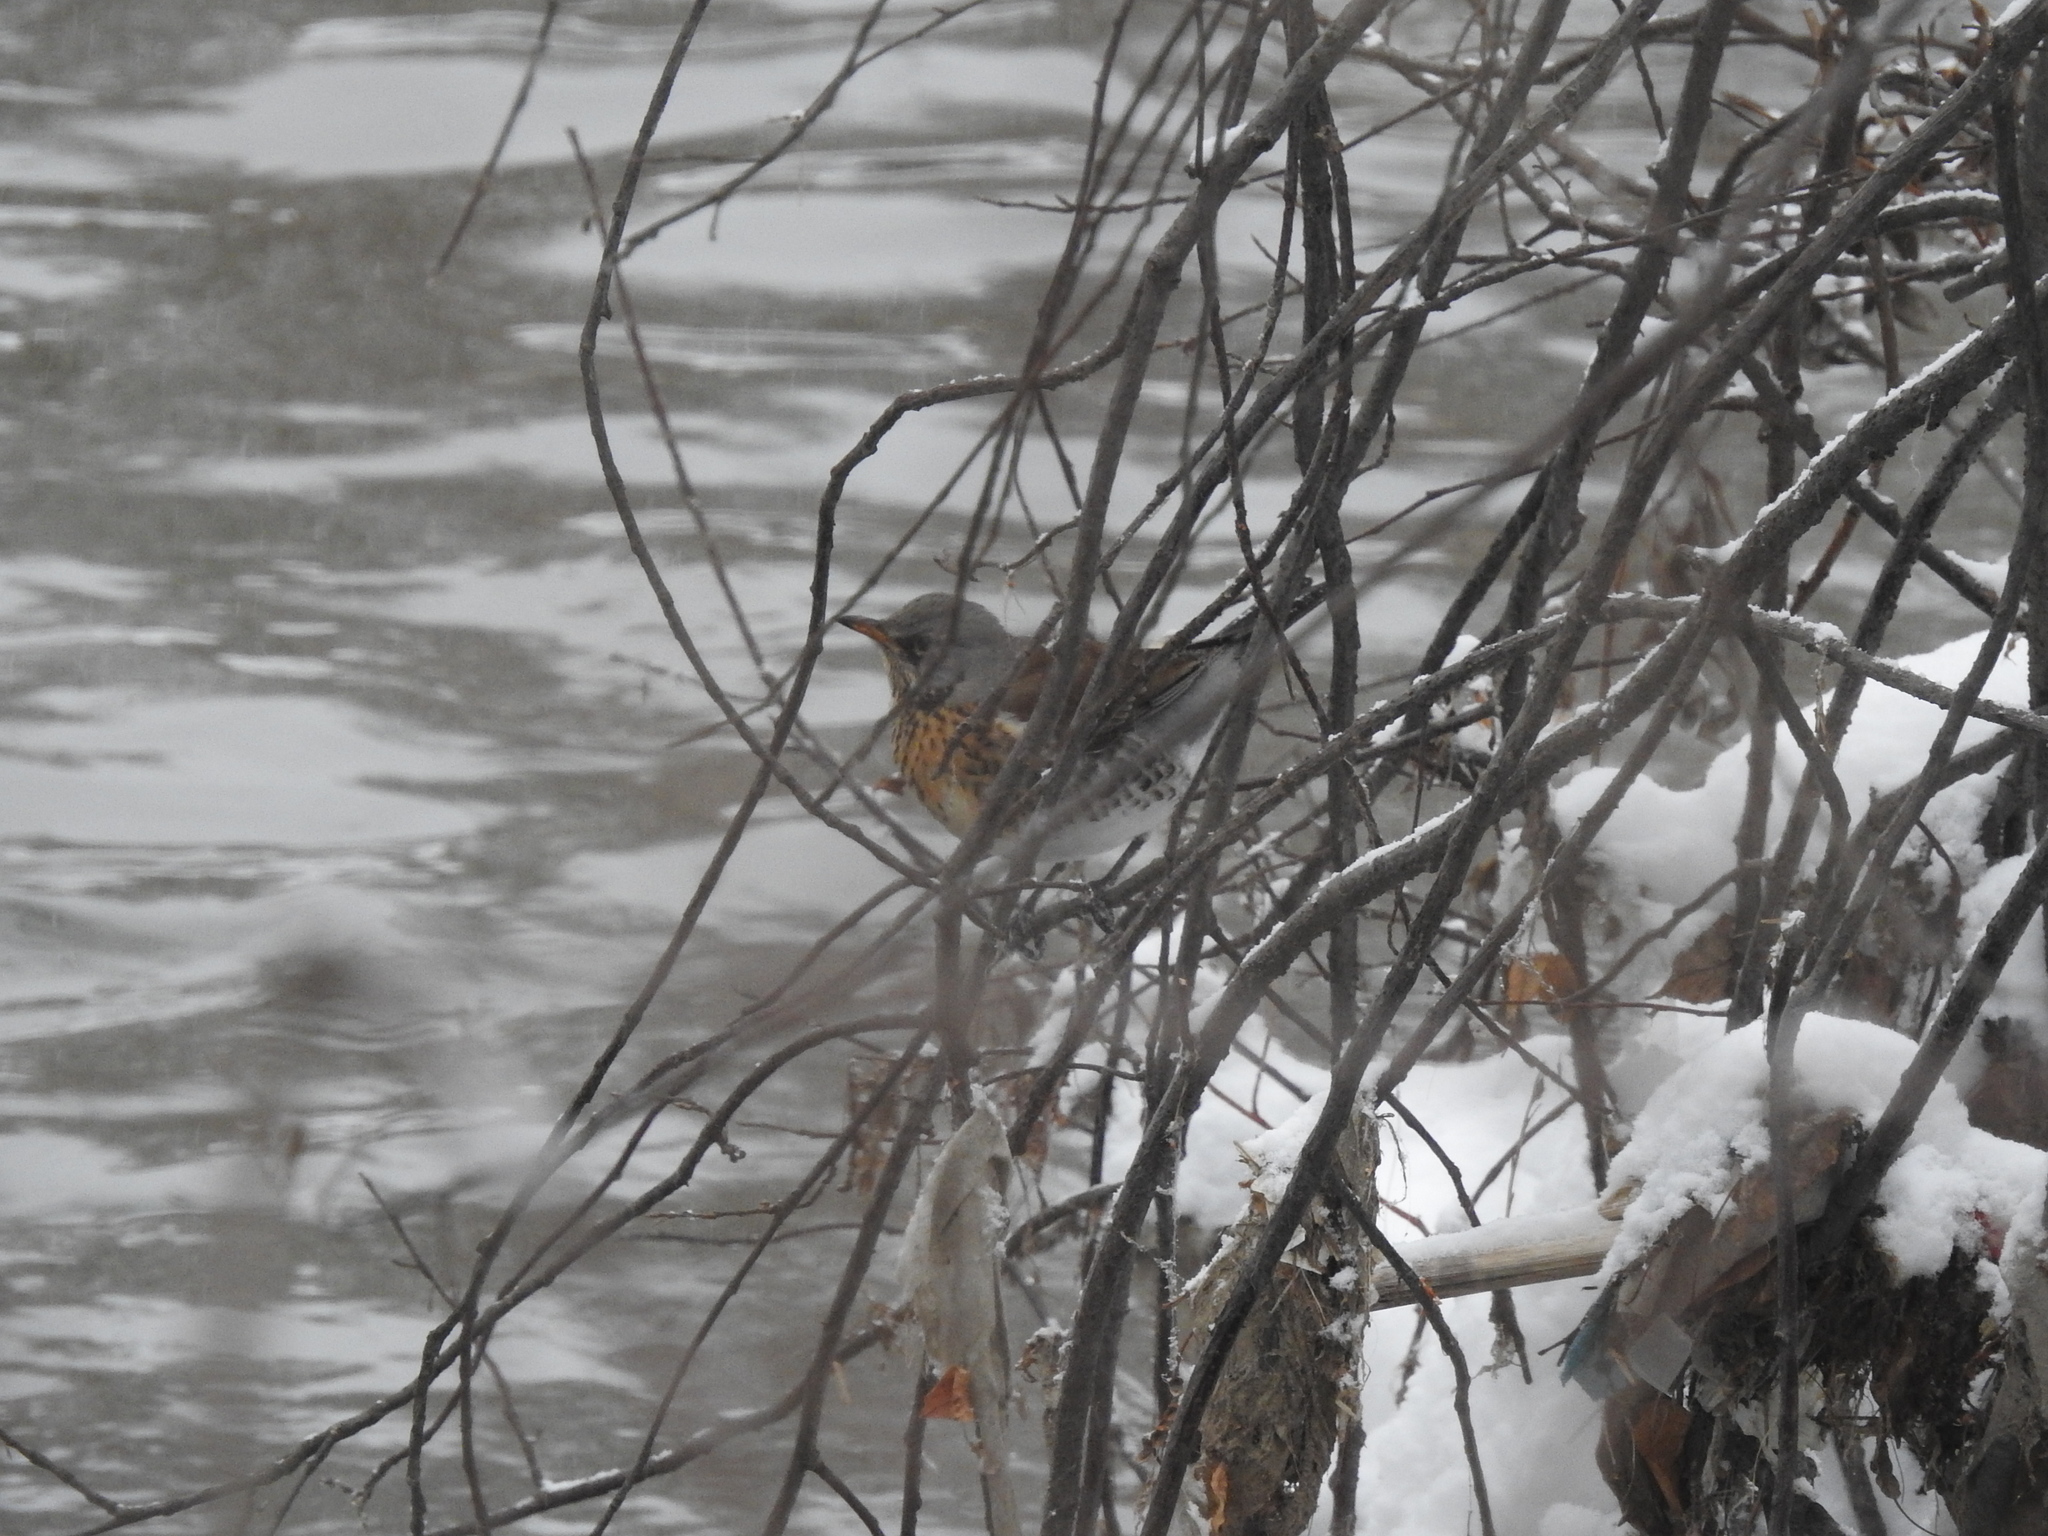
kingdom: Animalia
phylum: Chordata
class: Aves
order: Passeriformes
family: Turdidae
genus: Turdus
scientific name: Turdus pilaris
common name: Fieldfare
